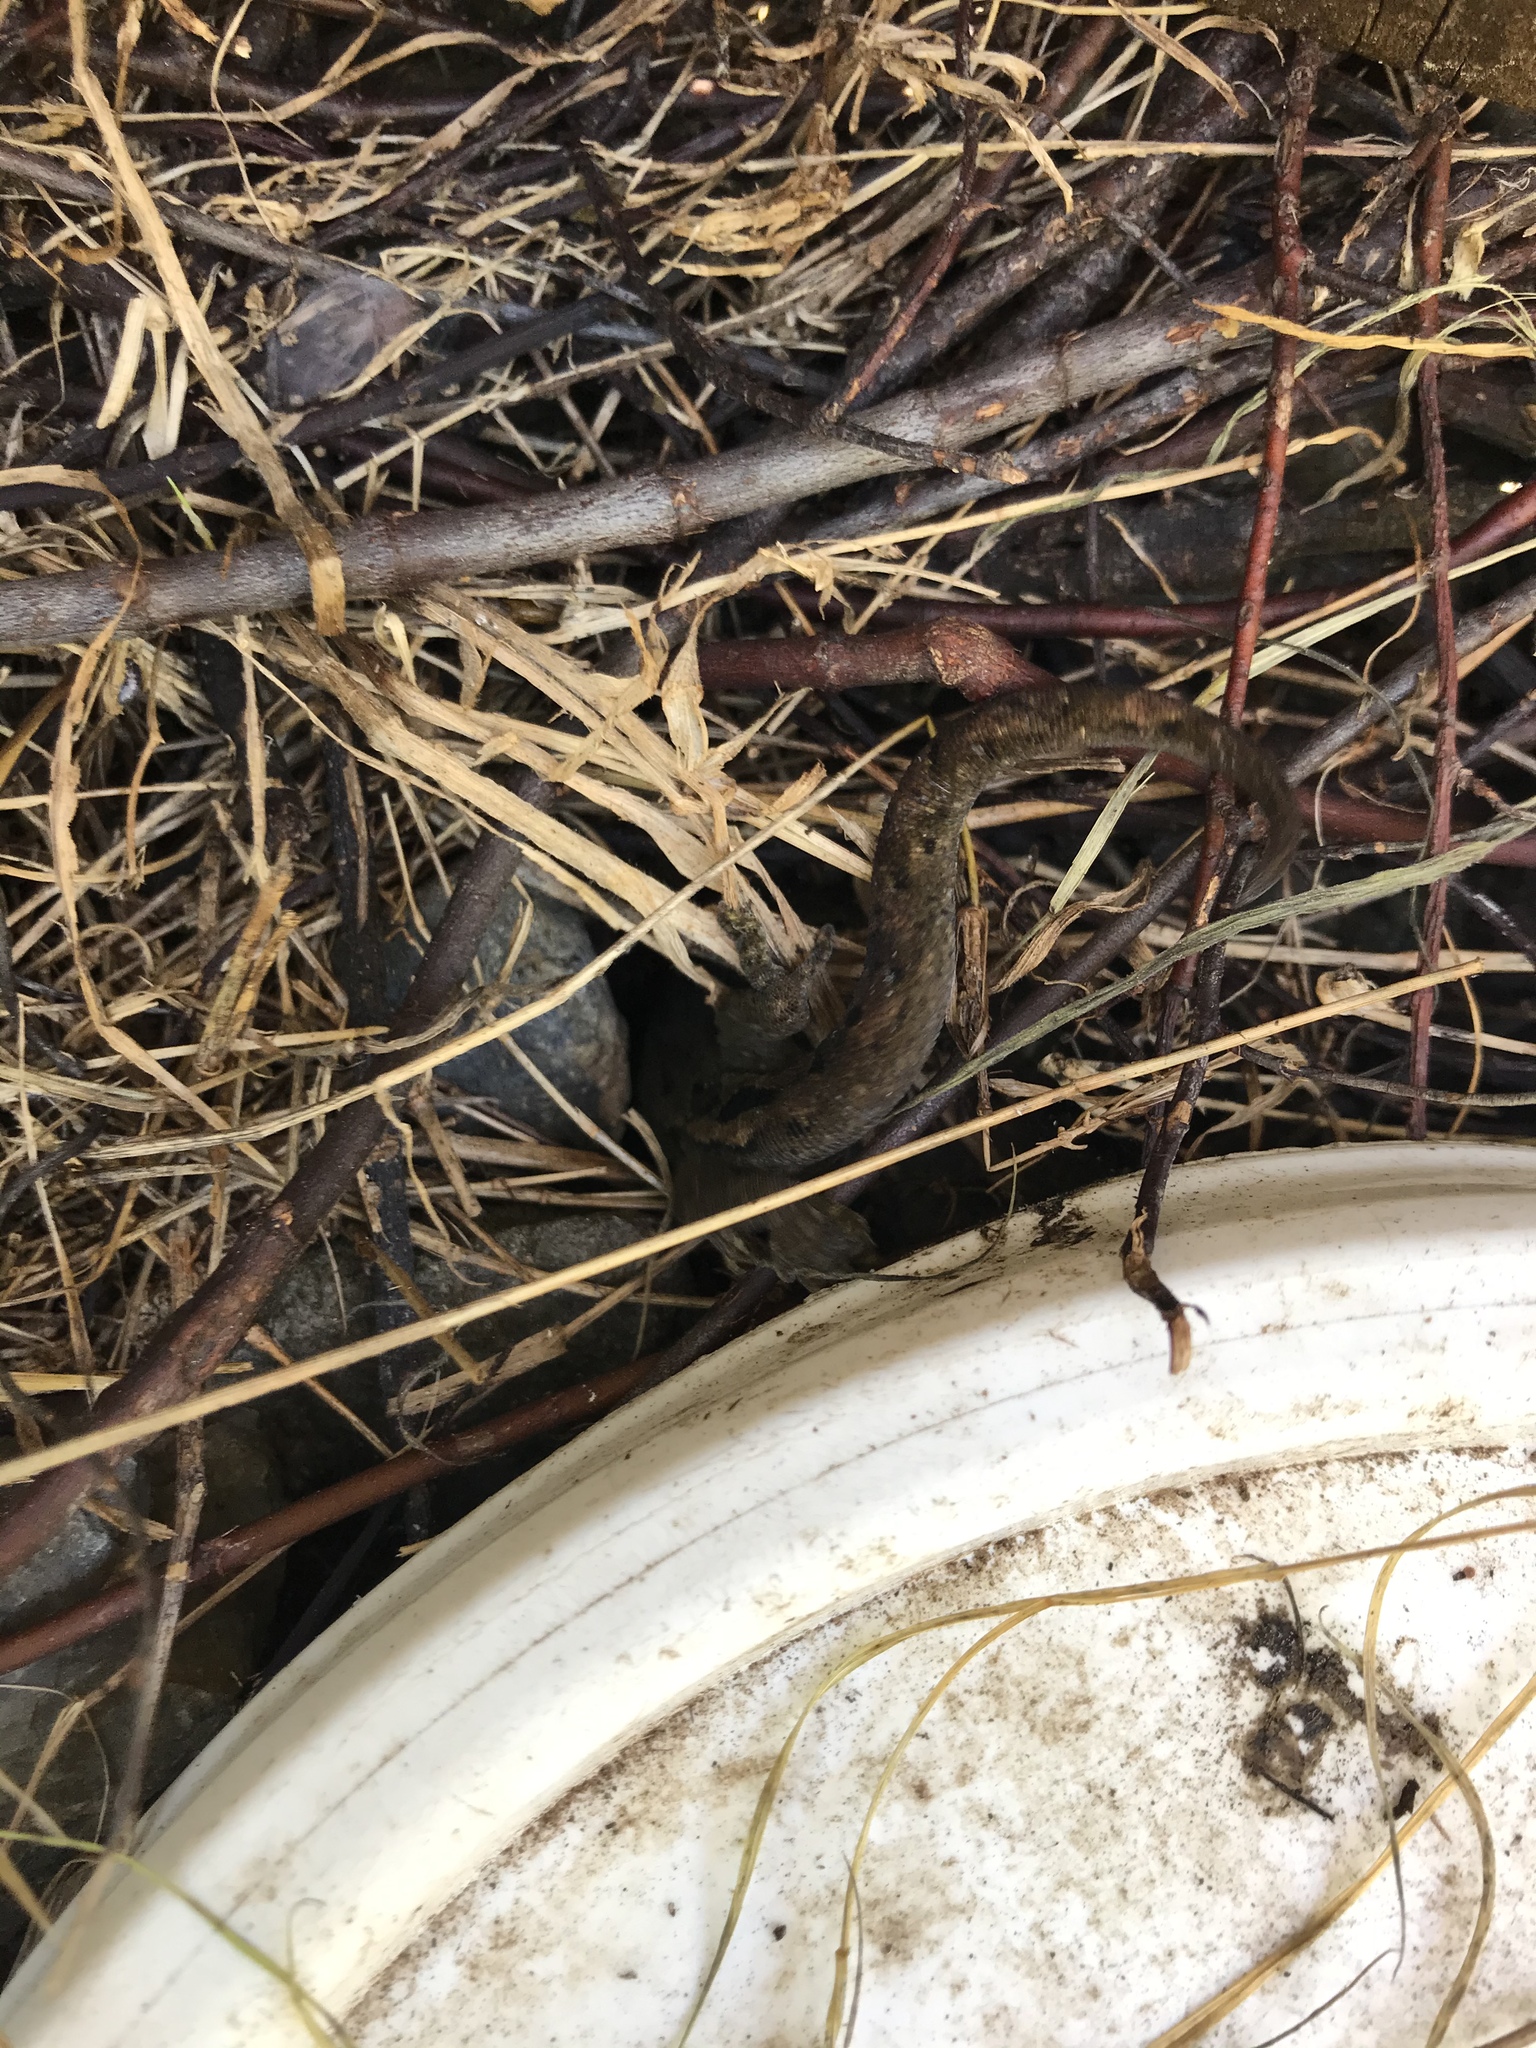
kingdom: Animalia
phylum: Chordata
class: Squamata
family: Diplodactylidae
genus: Woodworthia
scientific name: Woodworthia maculata
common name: Raukawa gecko
